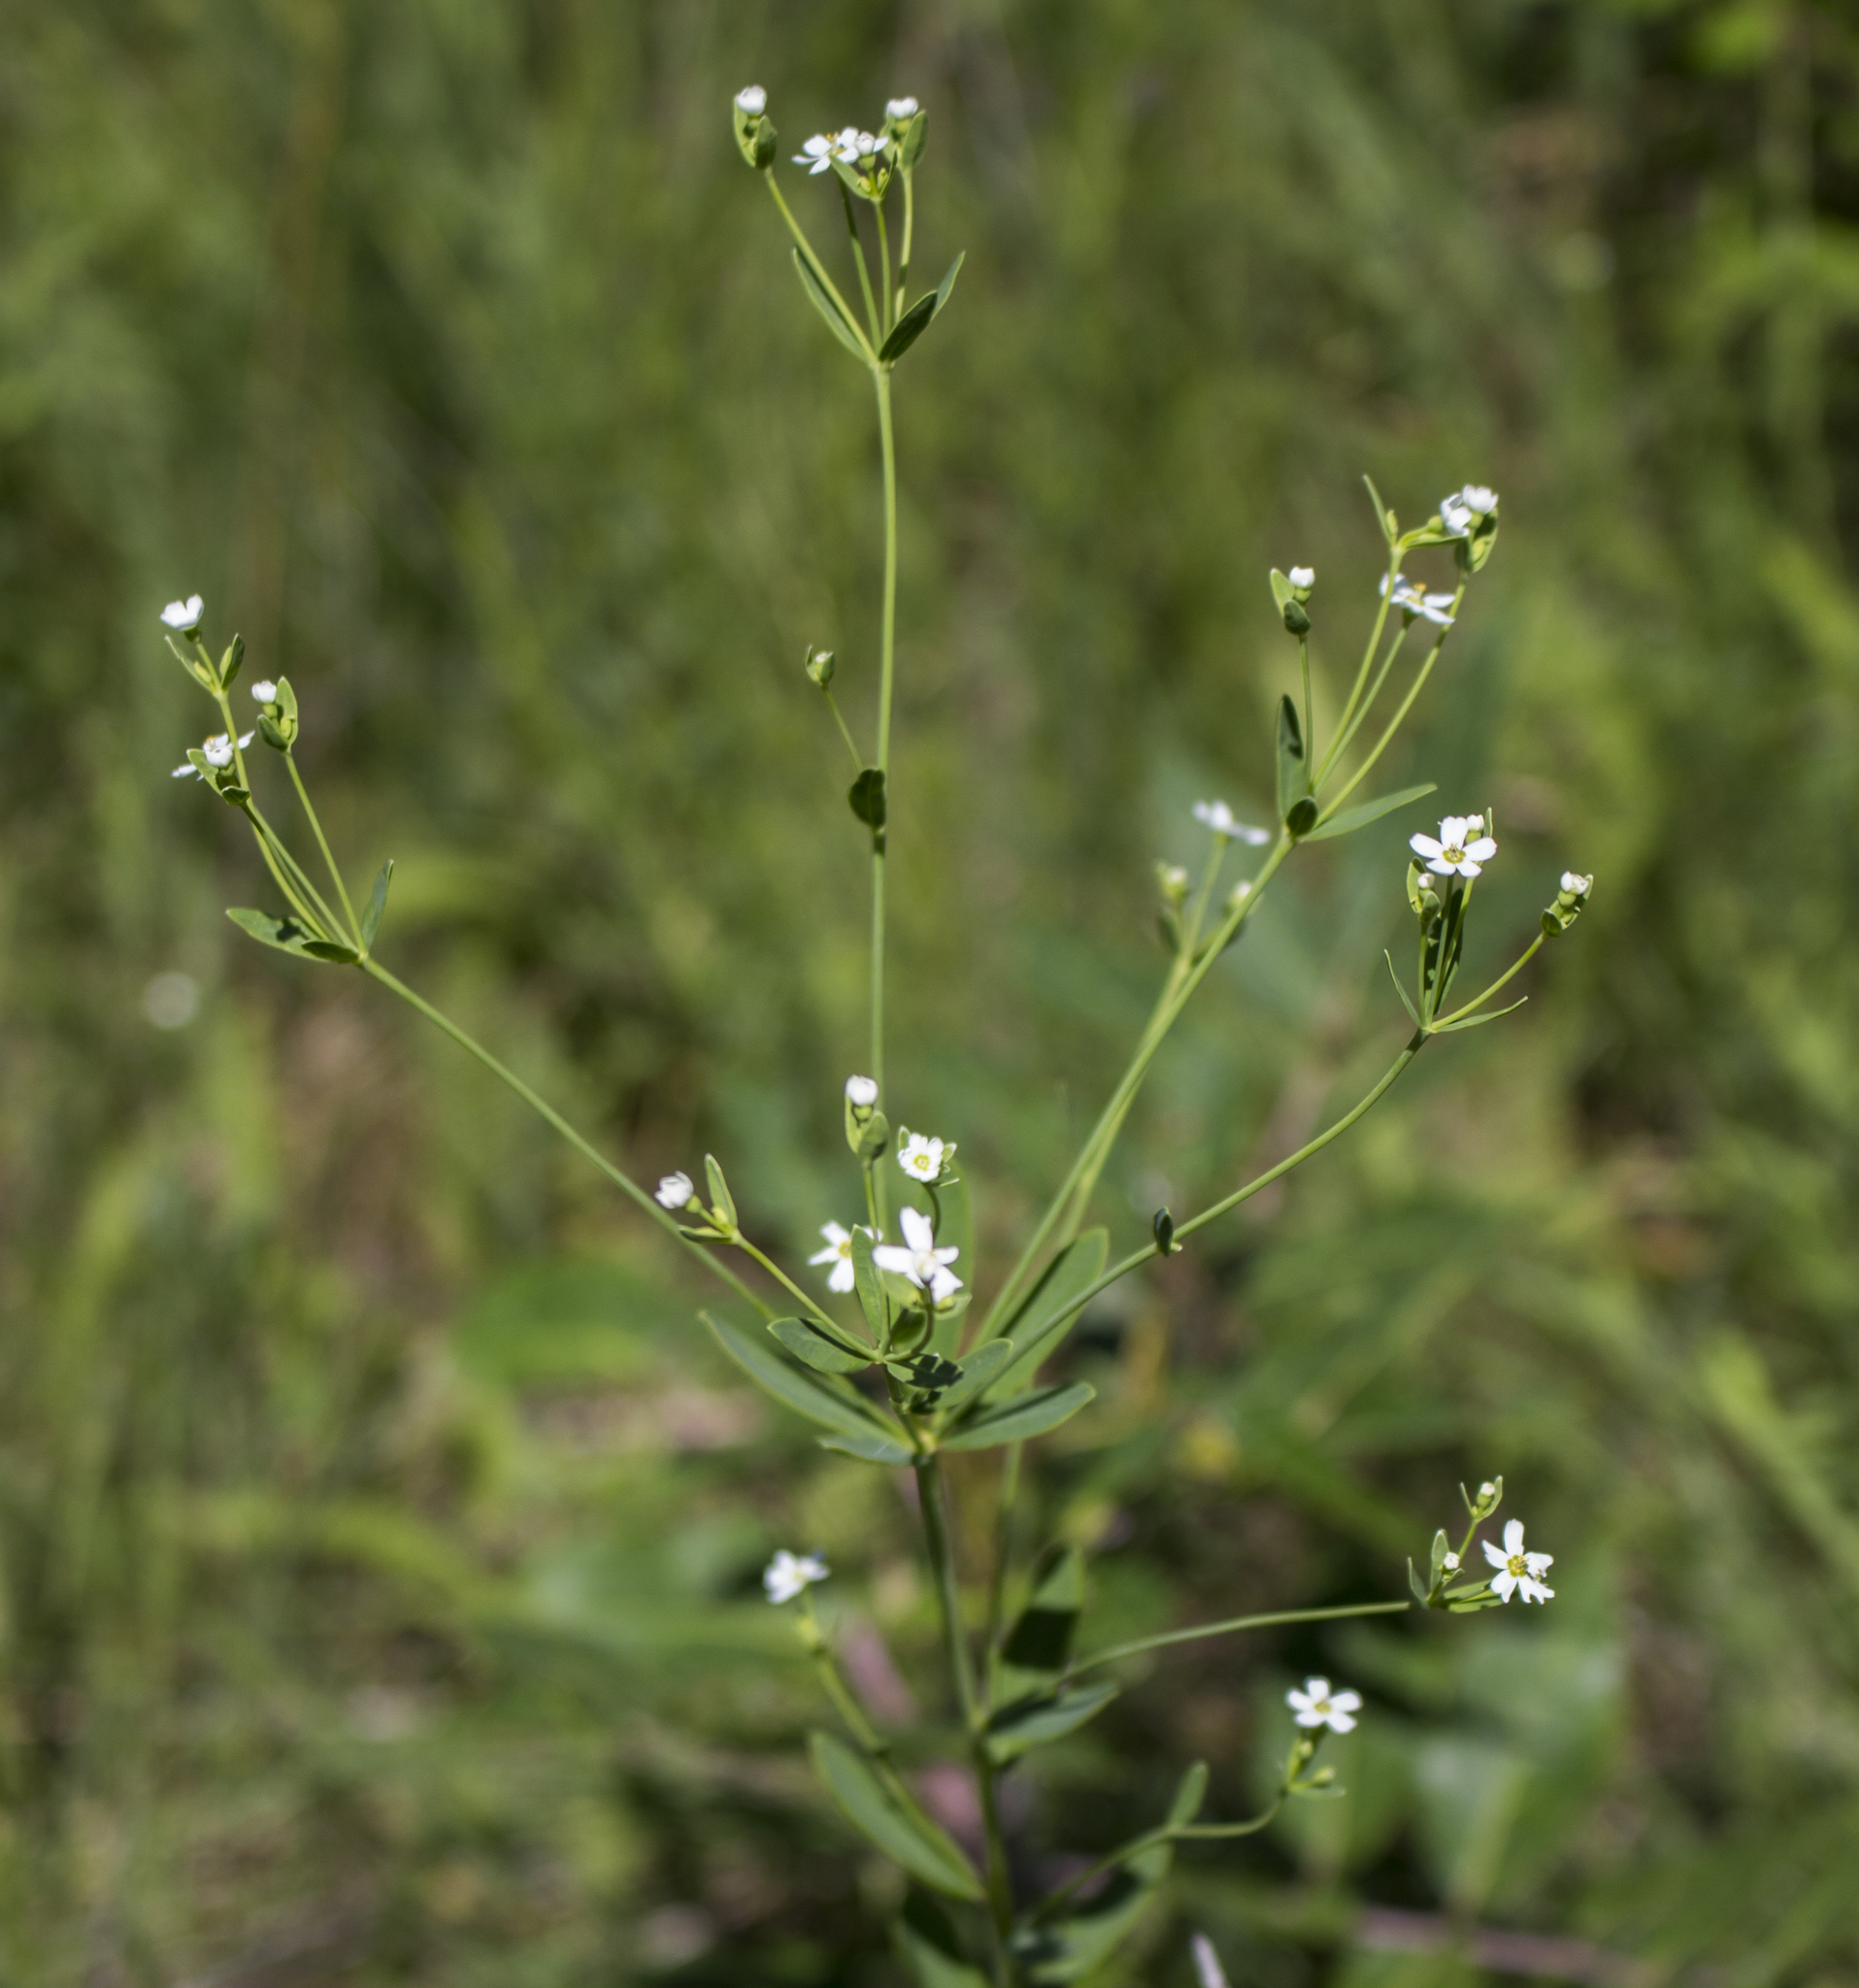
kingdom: Plantae
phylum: Tracheophyta
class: Magnoliopsida
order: Malpighiales
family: Euphorbiaceae
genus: Euphorbia
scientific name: Euphorbia corollata
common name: Flowering spurge
